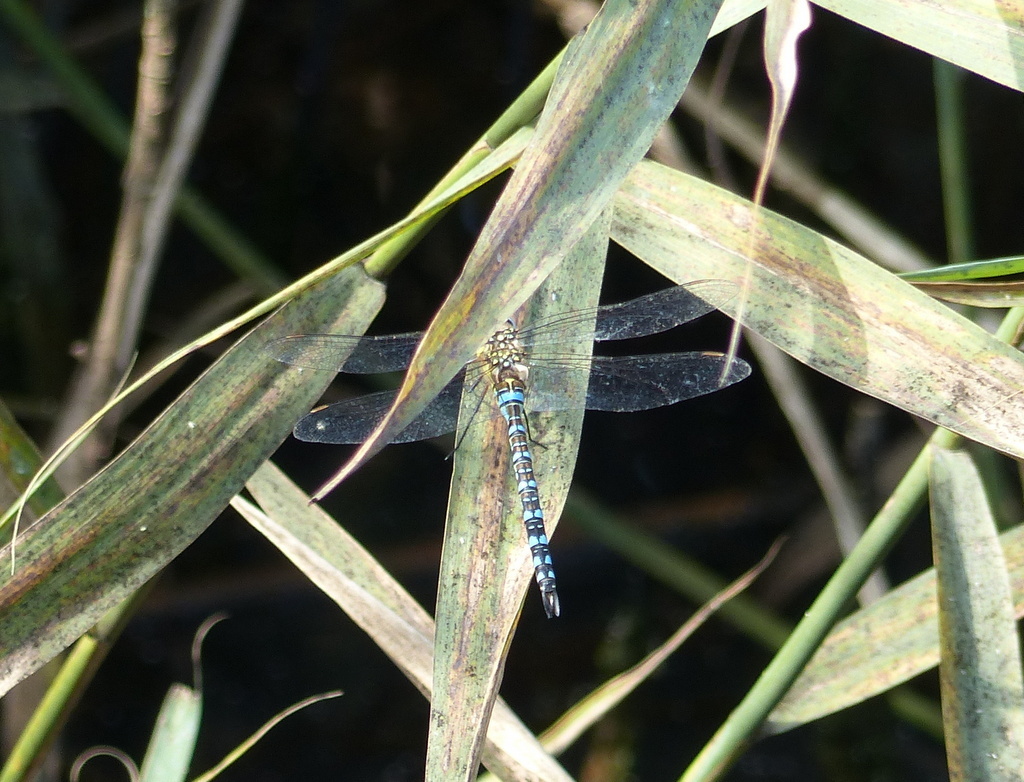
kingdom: Animalia
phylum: Arthropoda
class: Insecta
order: Odonata
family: Aeshnidae
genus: Aeshna
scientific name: Aeshna mixta
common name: Migrant hawker
